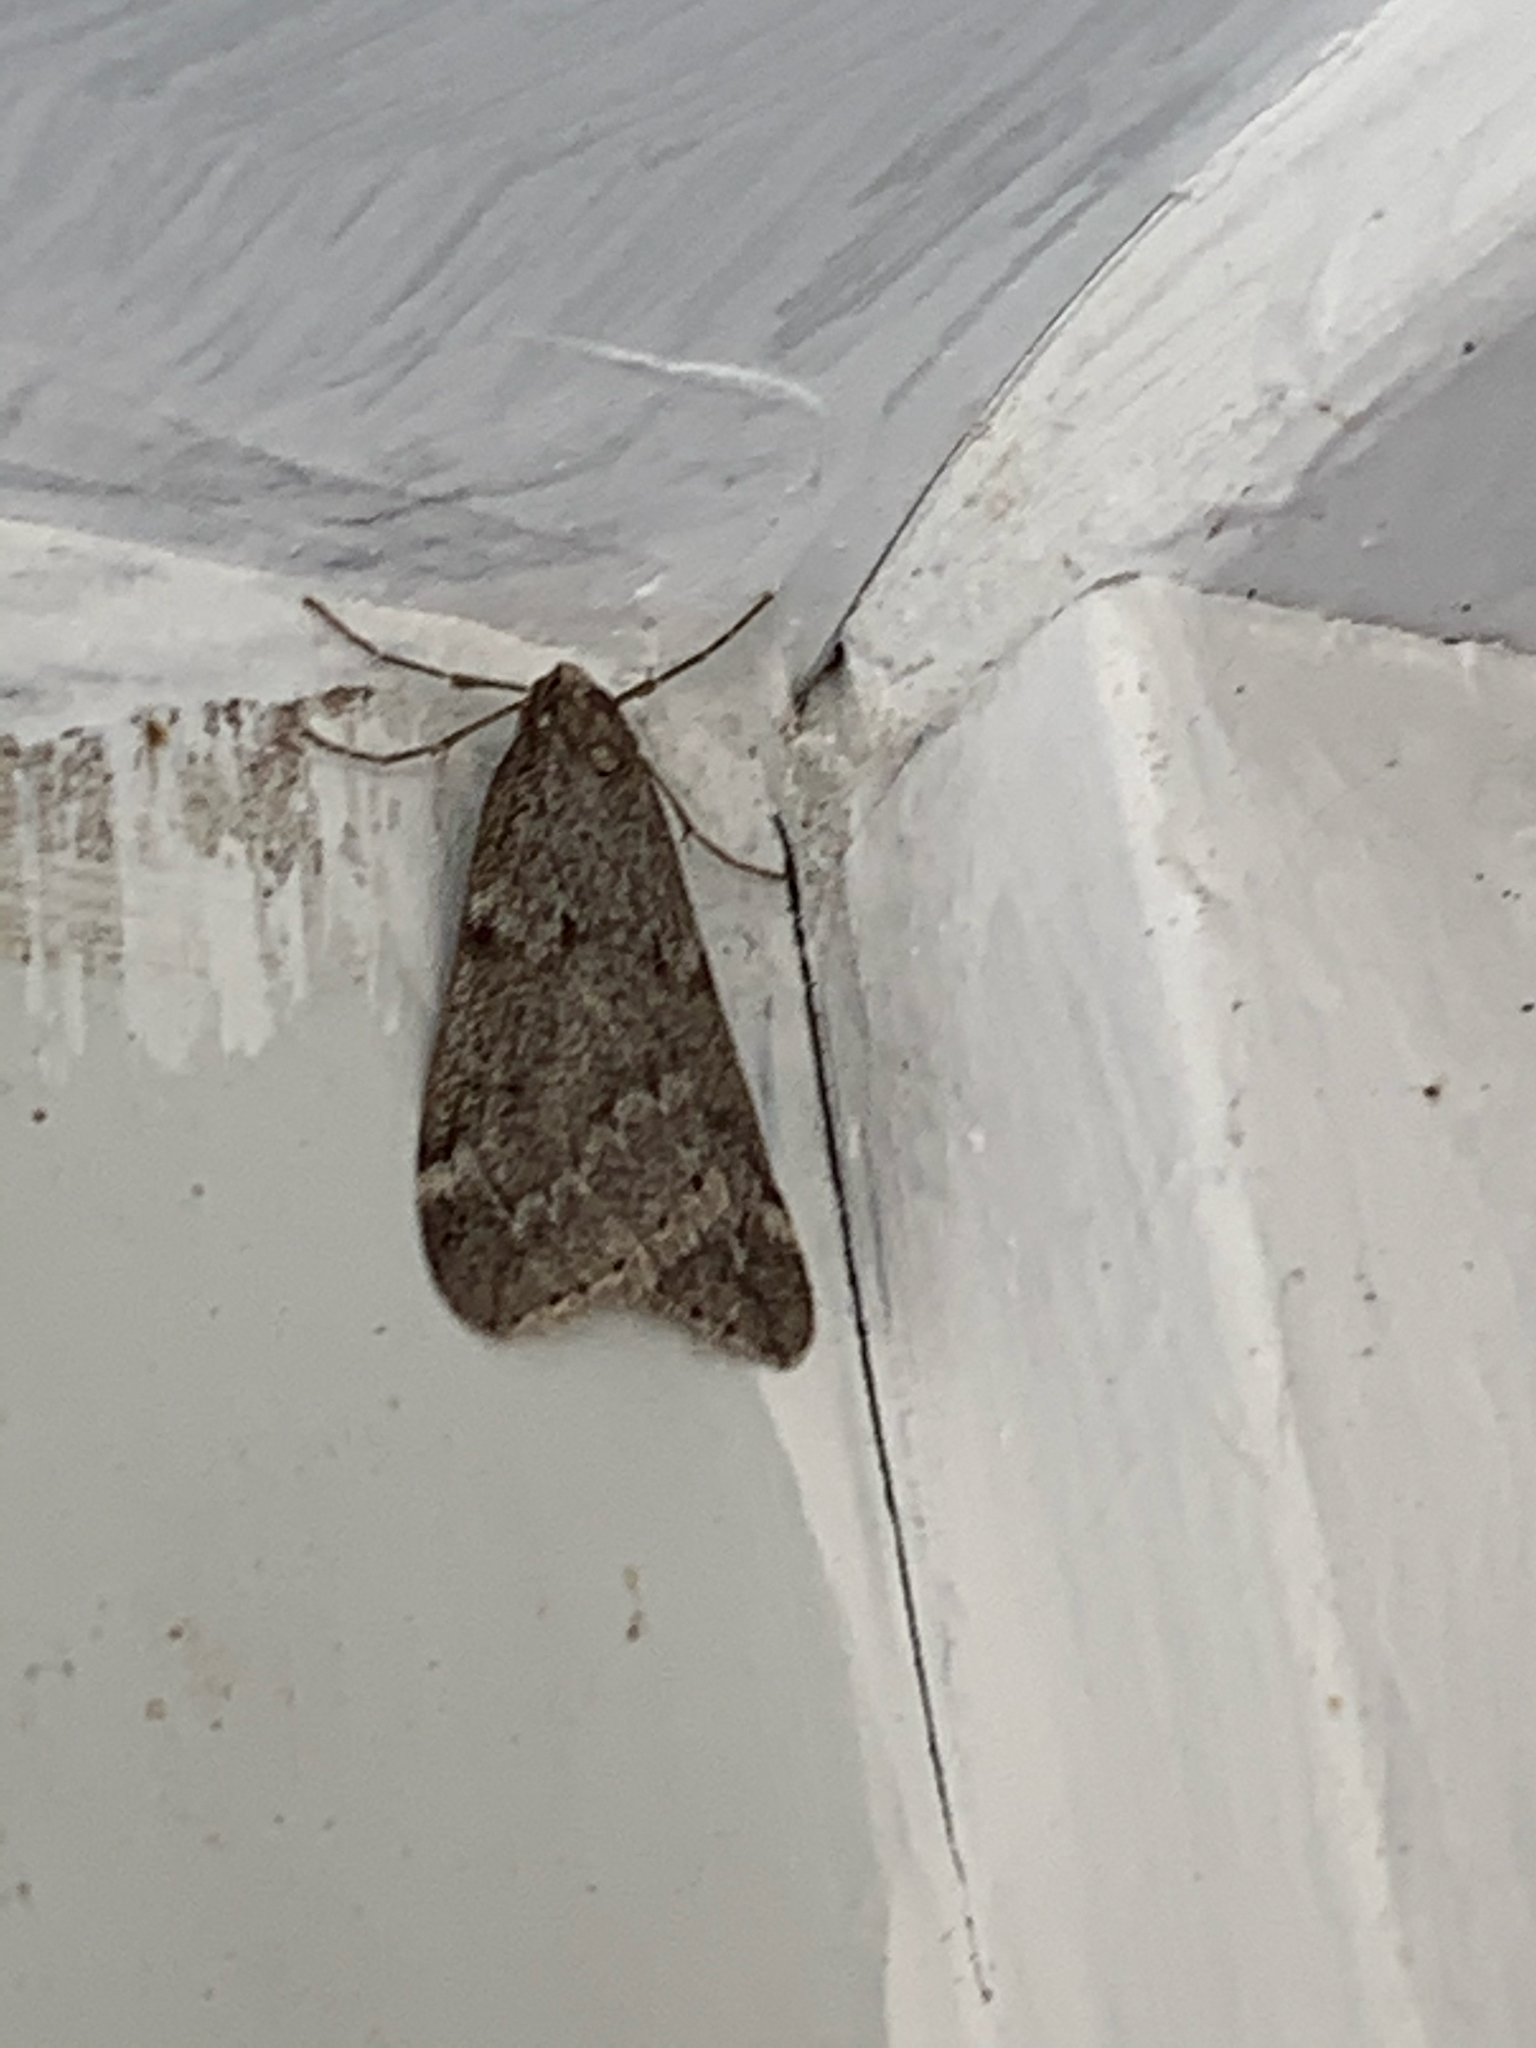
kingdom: Animalia
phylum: Arthropoda
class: Insecta
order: Lepidoptera
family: Geometridae
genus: Alsophila
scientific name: Alsophila pometaria
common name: Fall cankerworm
